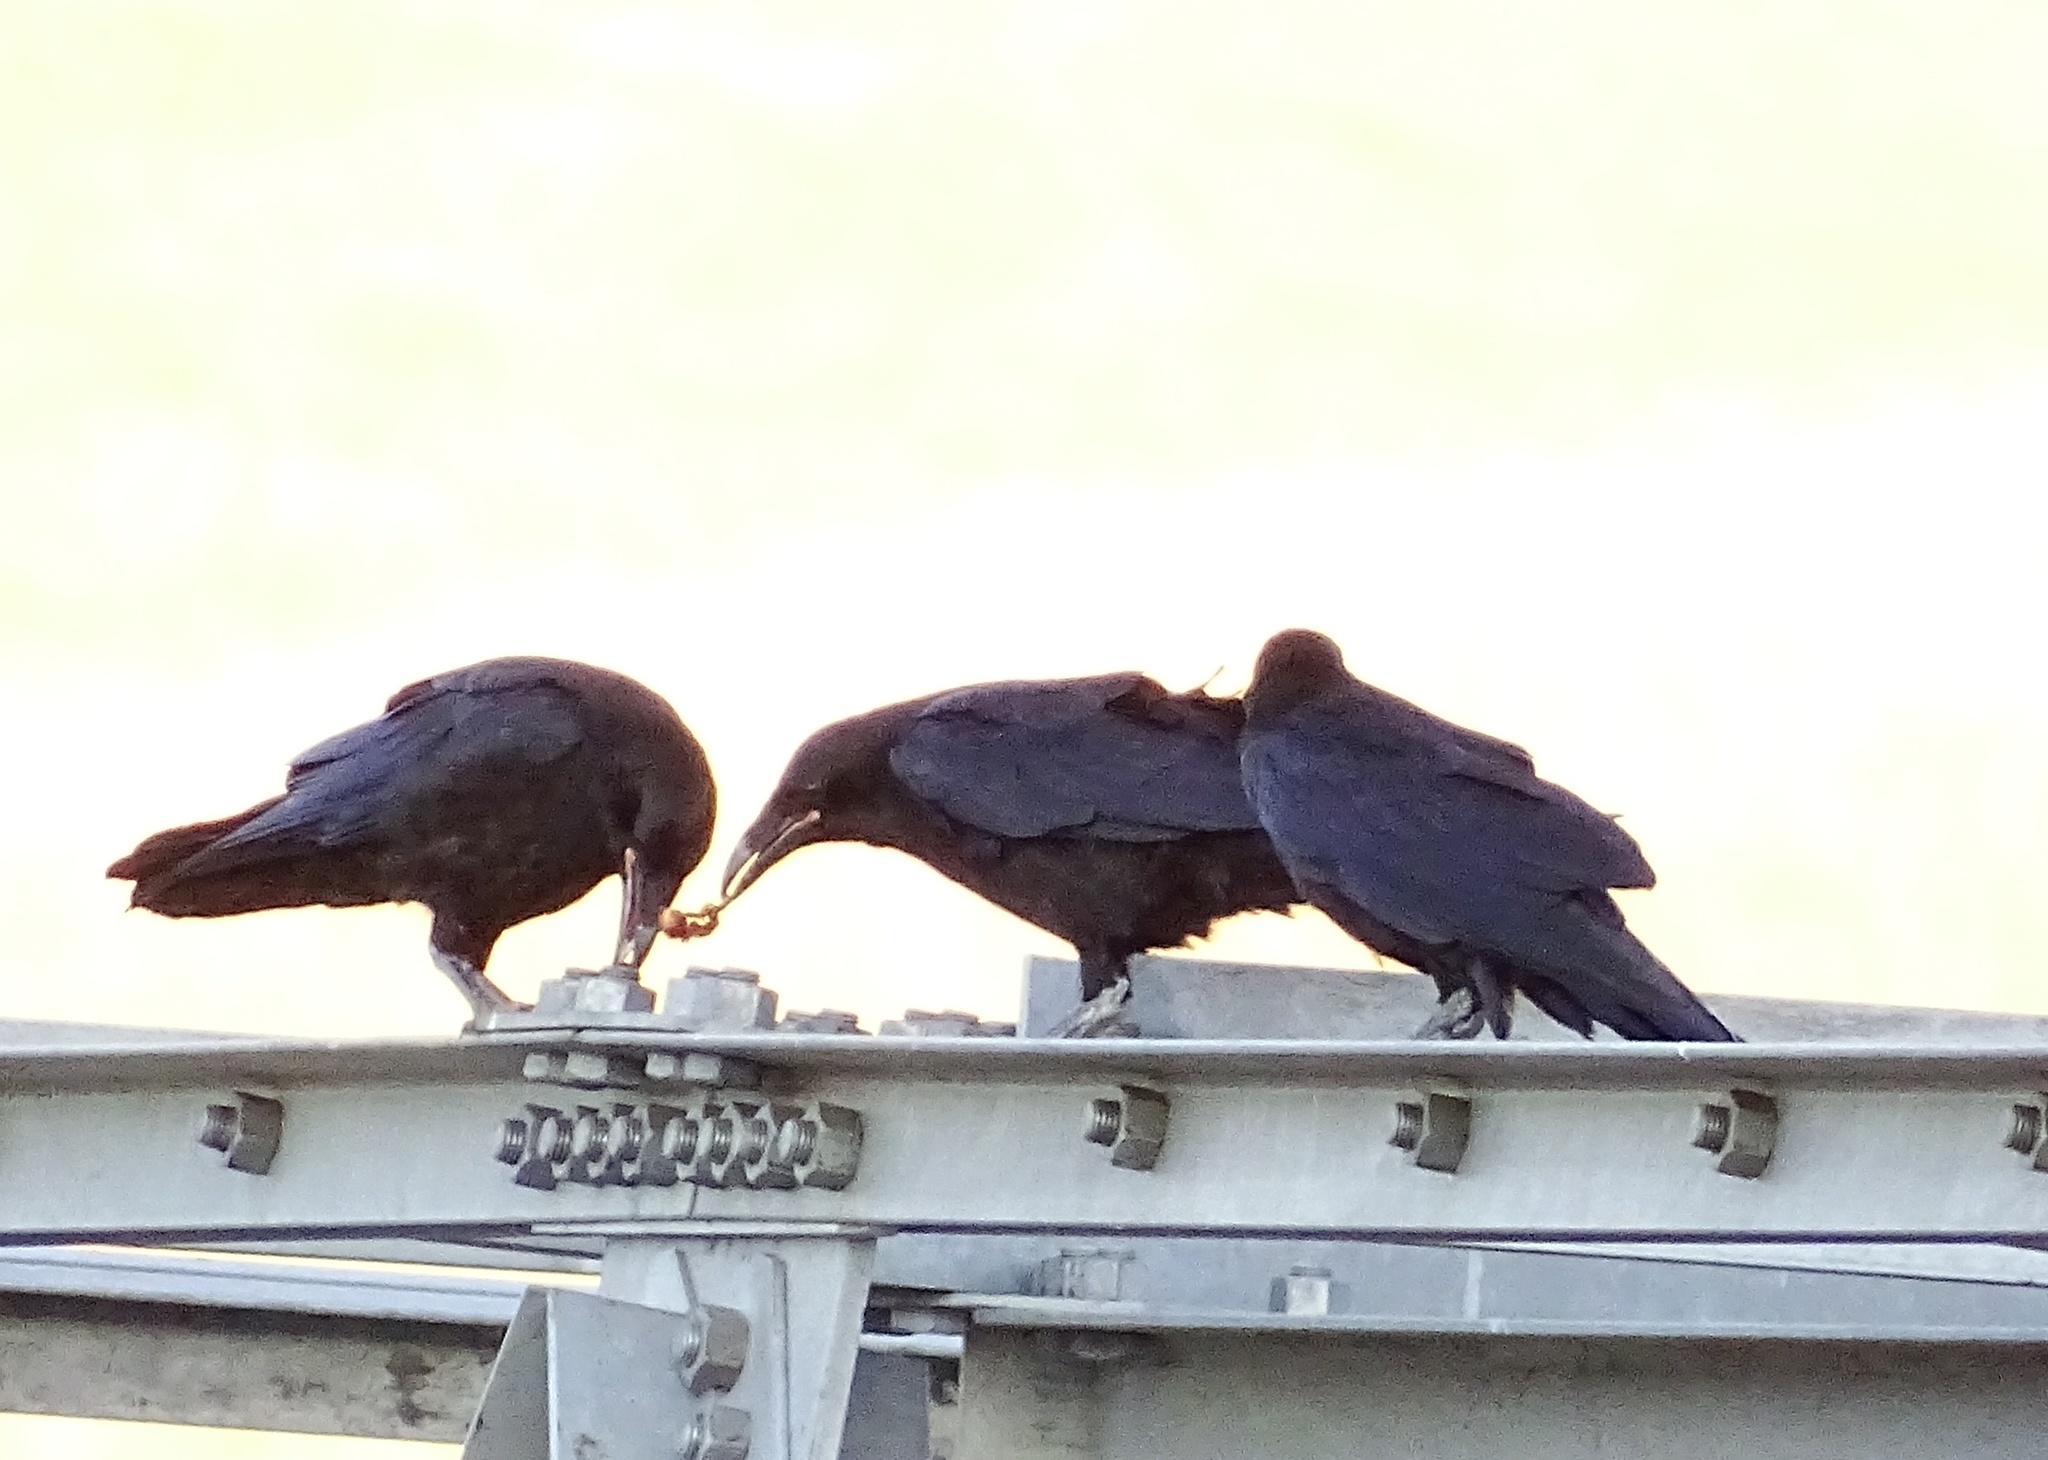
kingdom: Animalia
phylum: Chordata
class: Aves
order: Passeriformes
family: Corvidae
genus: Corvus
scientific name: Corvus corax
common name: Common raven
